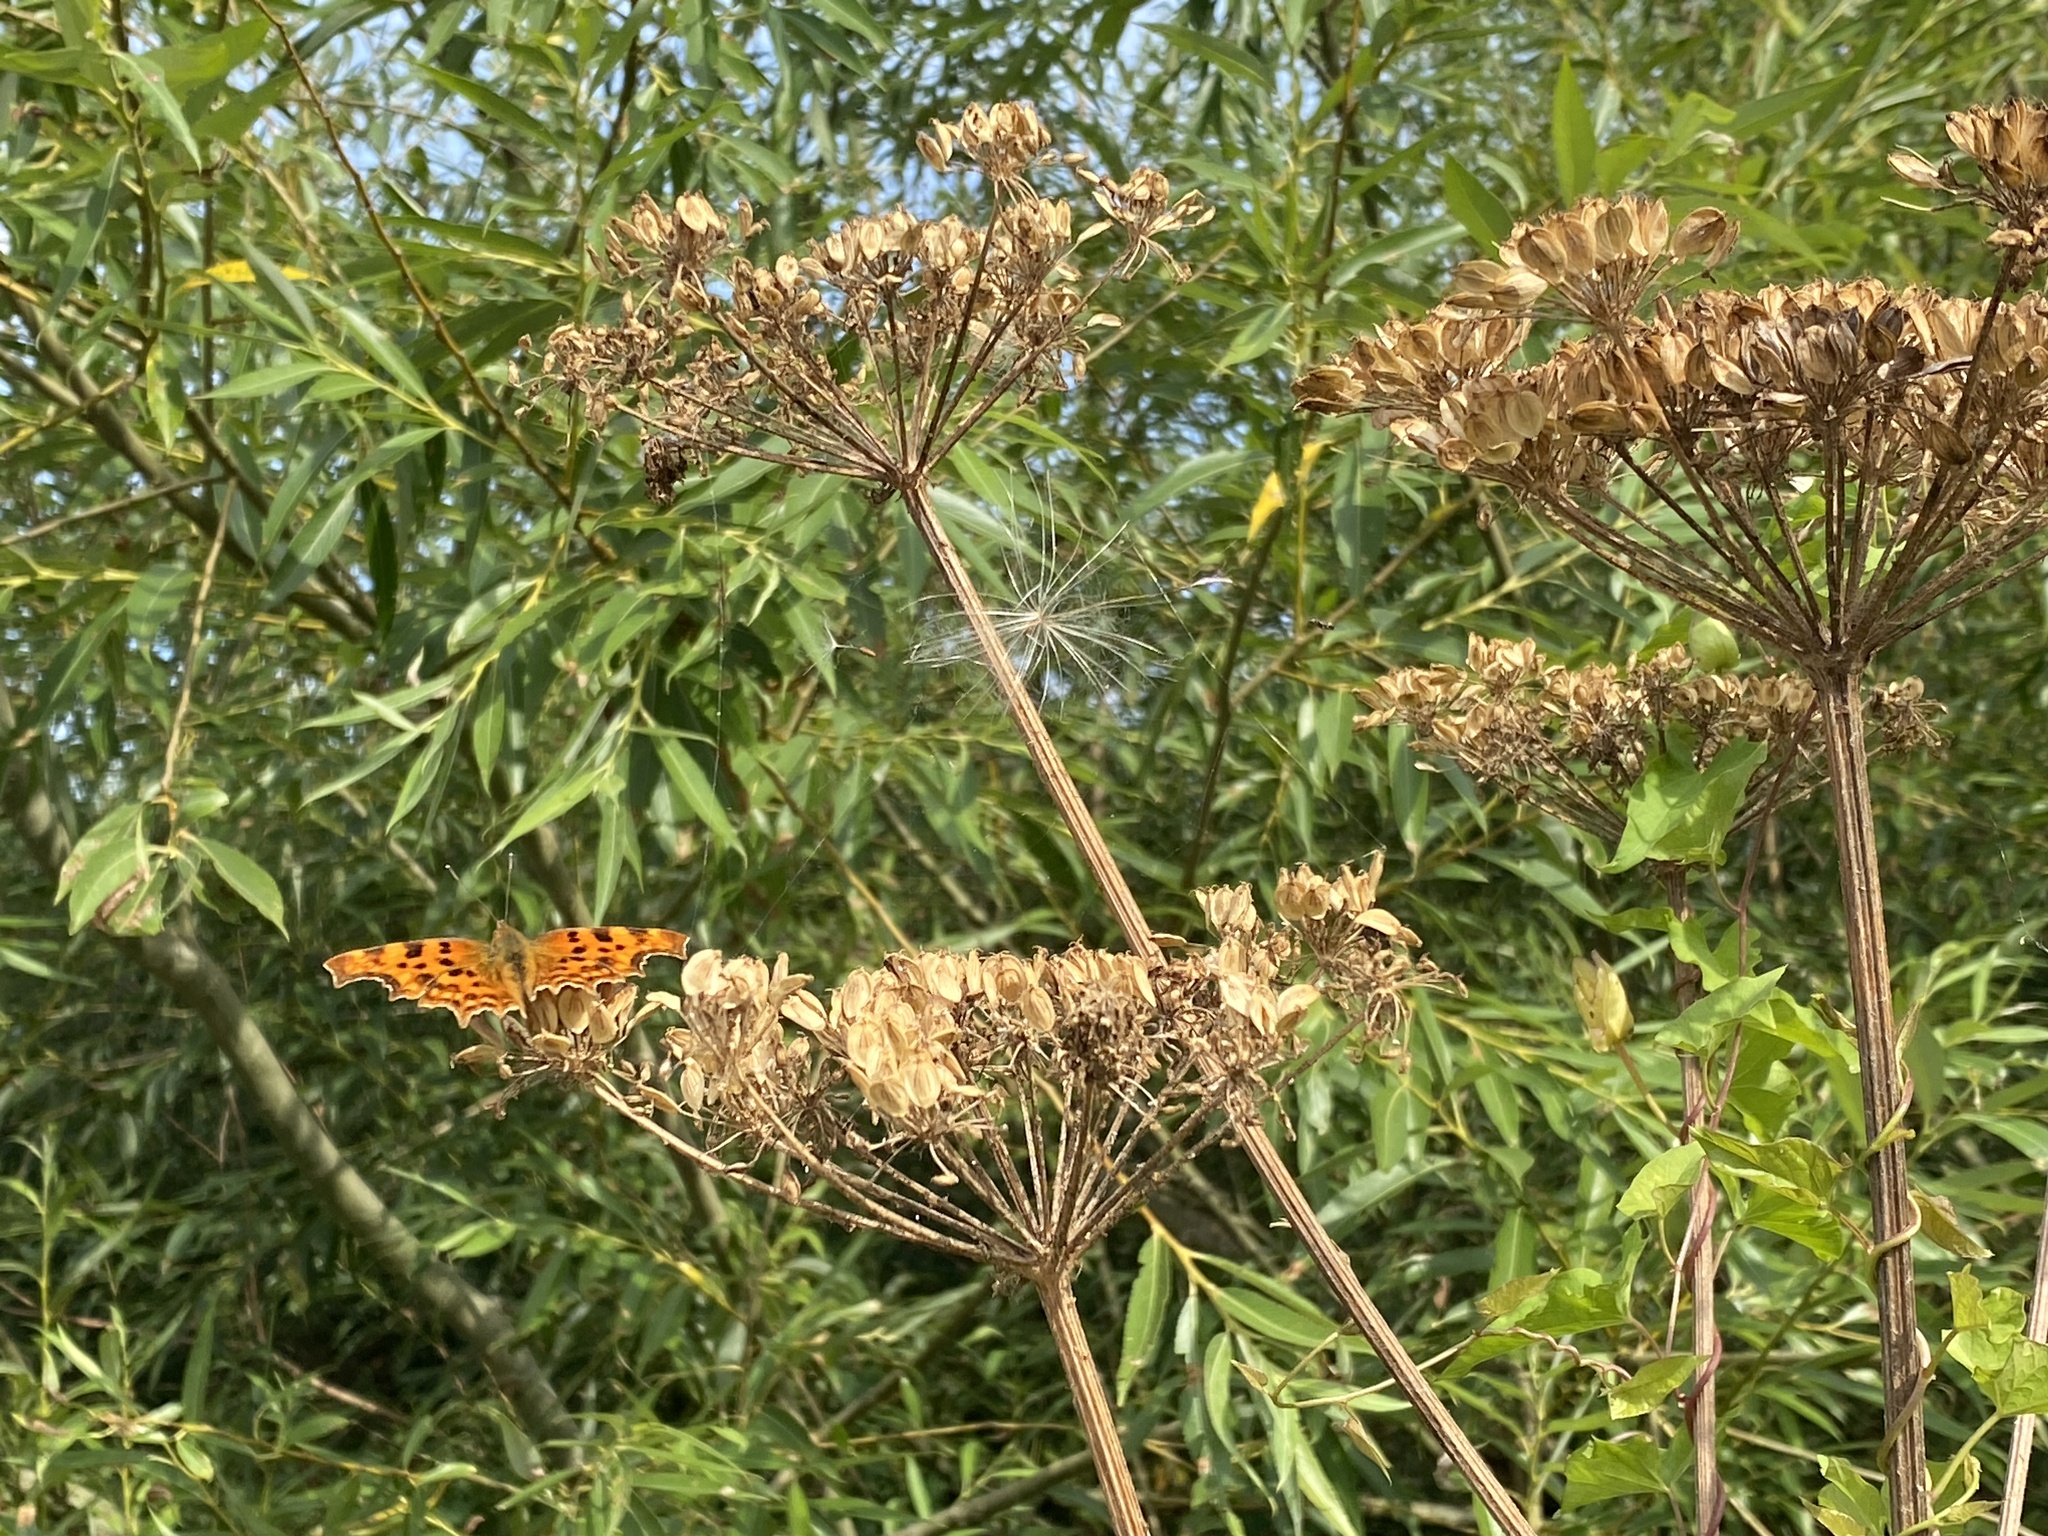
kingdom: Animalia
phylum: Arthropoda
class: Insecta
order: Lepidoptera
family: Nymphalidae
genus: Polygonia
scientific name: Polygonia c-album
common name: Comma
